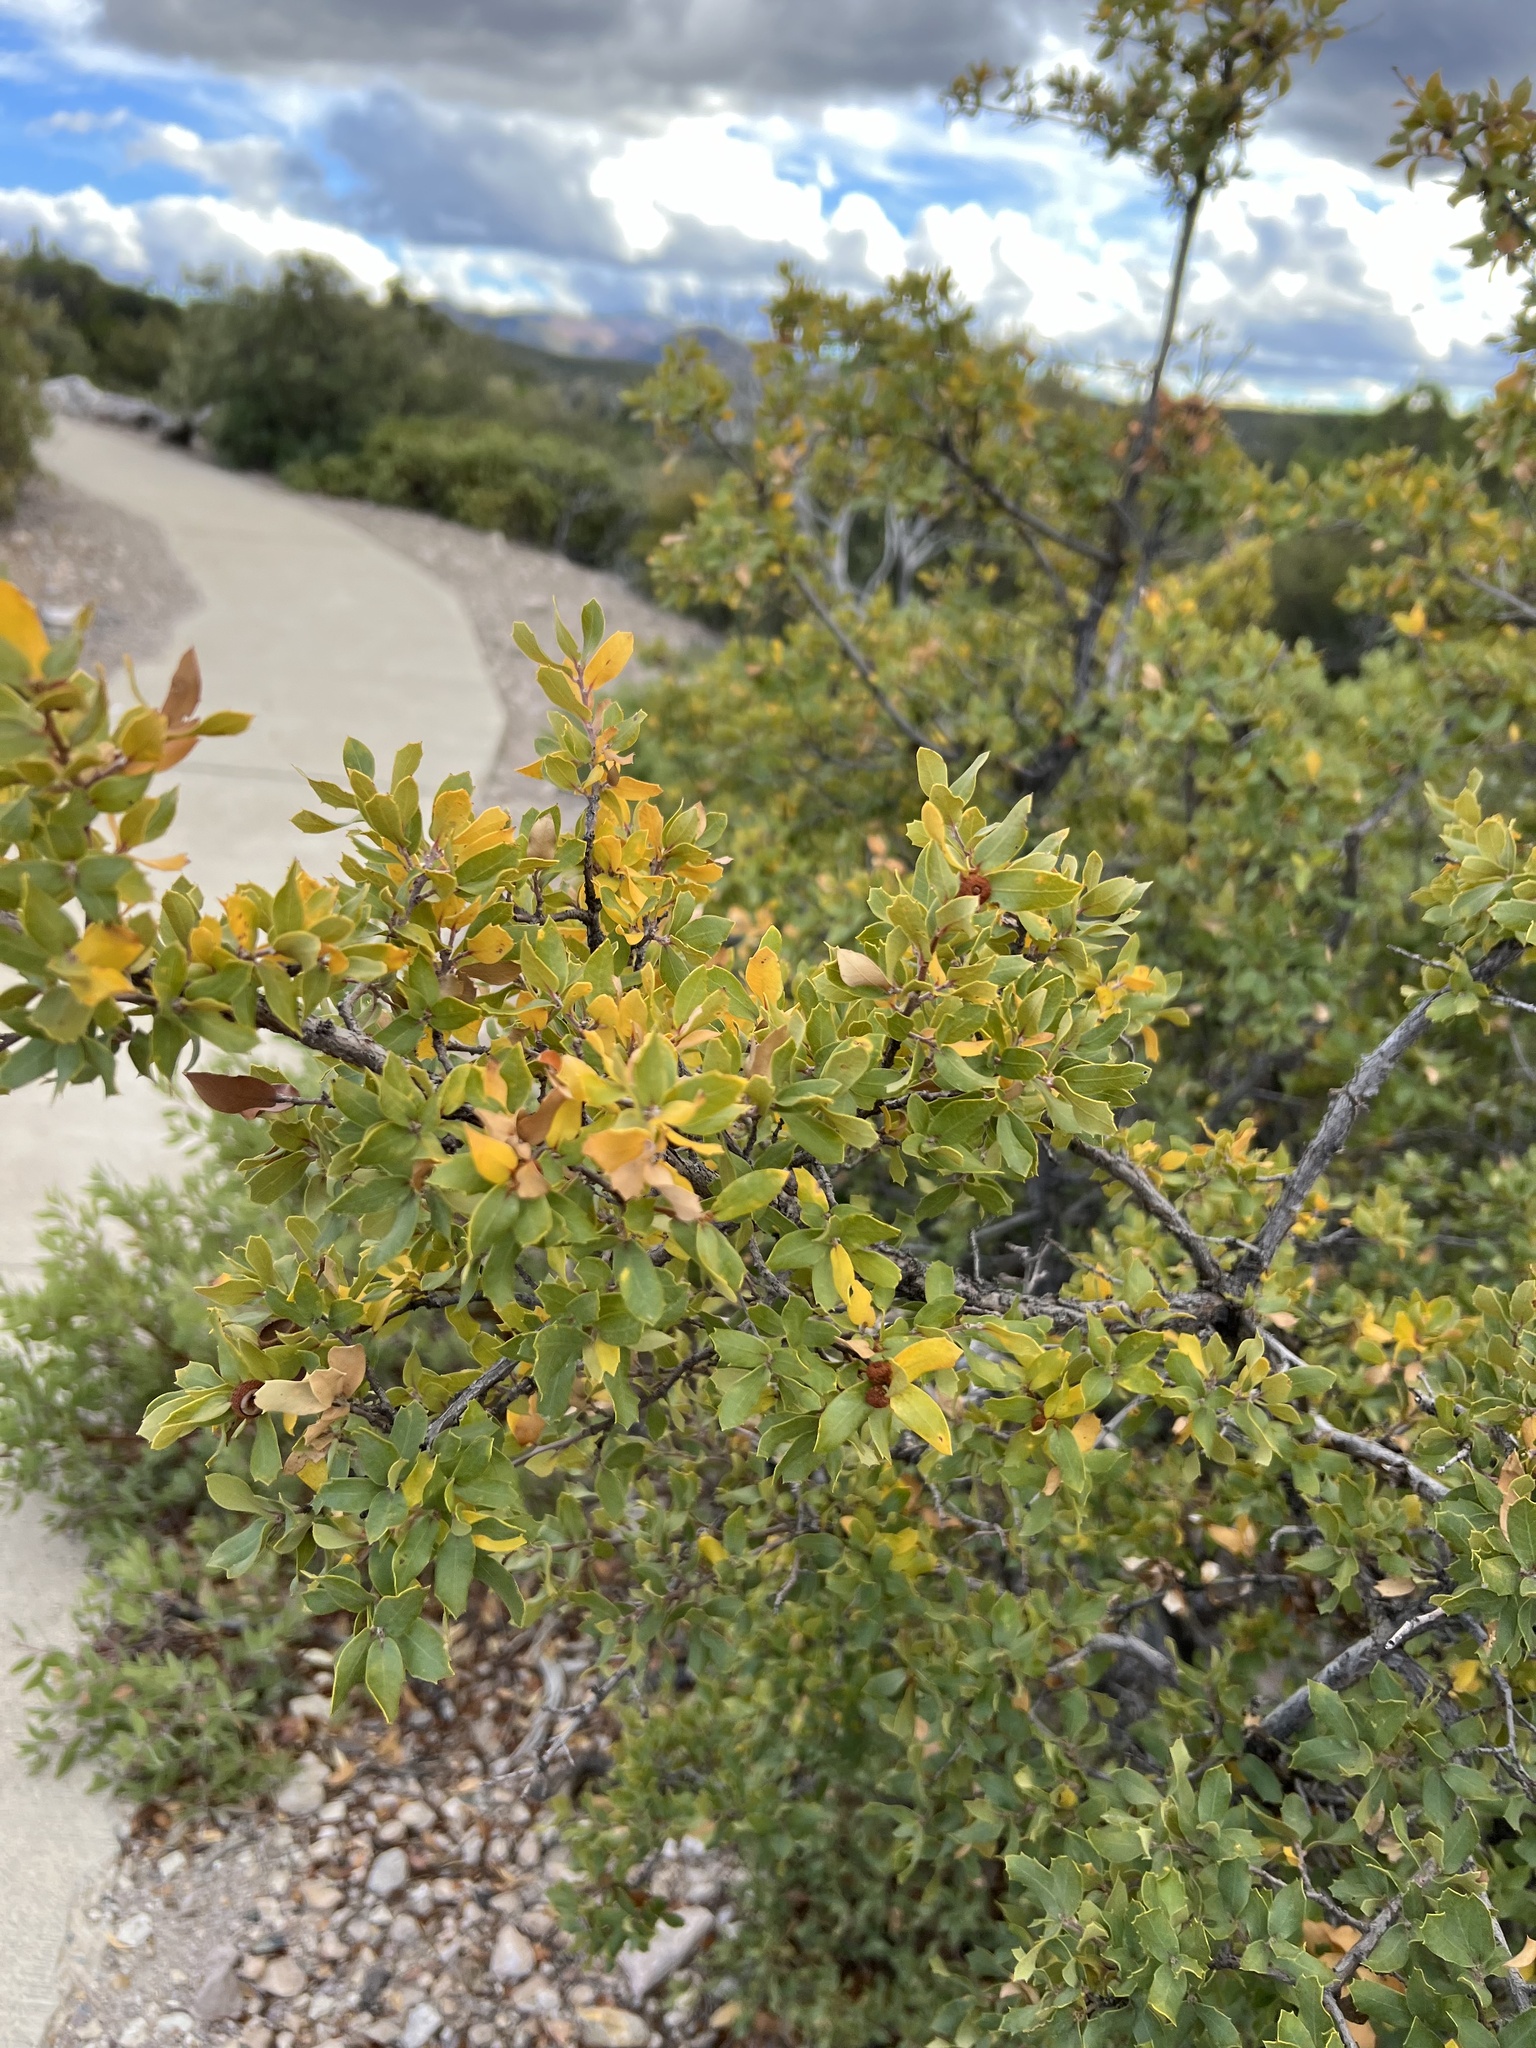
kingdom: Plantae
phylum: Tracheophyta
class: Magnoliopsida
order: Fagales
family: Fagaceae
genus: Quercus
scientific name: Quercus toumeyi
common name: Toumey oak
